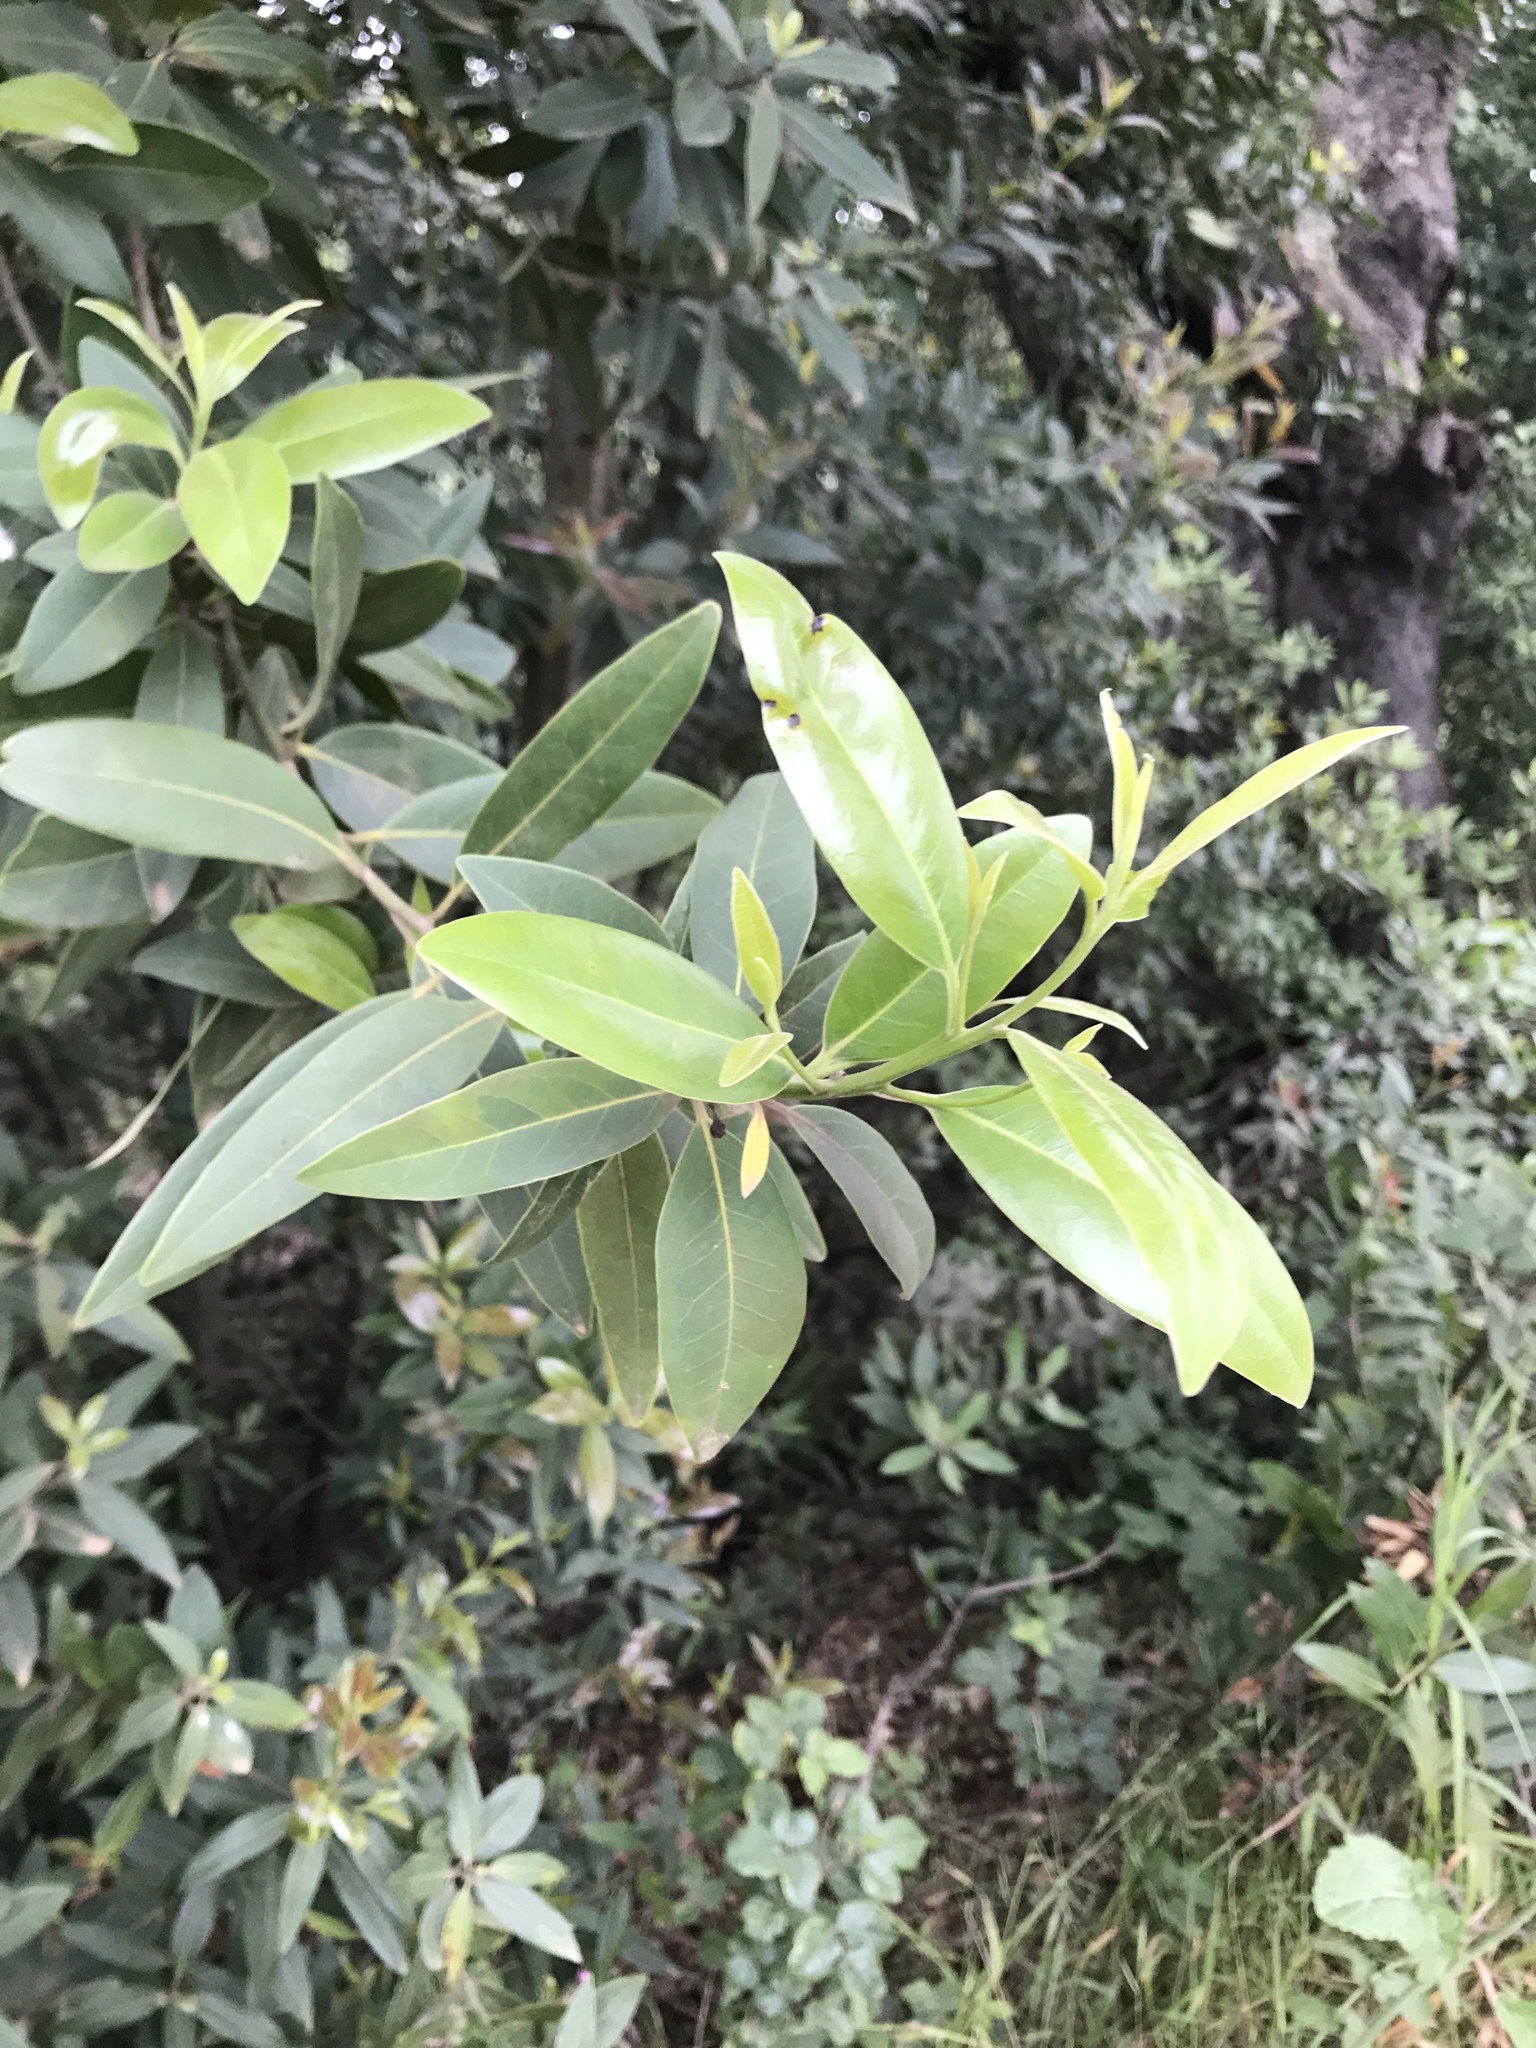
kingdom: Plantae
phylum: Tracheophyta
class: Magnoliopsida
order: Laurales
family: Lauraceae
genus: Umbellularia
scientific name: Umbellularia californica
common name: California bay
